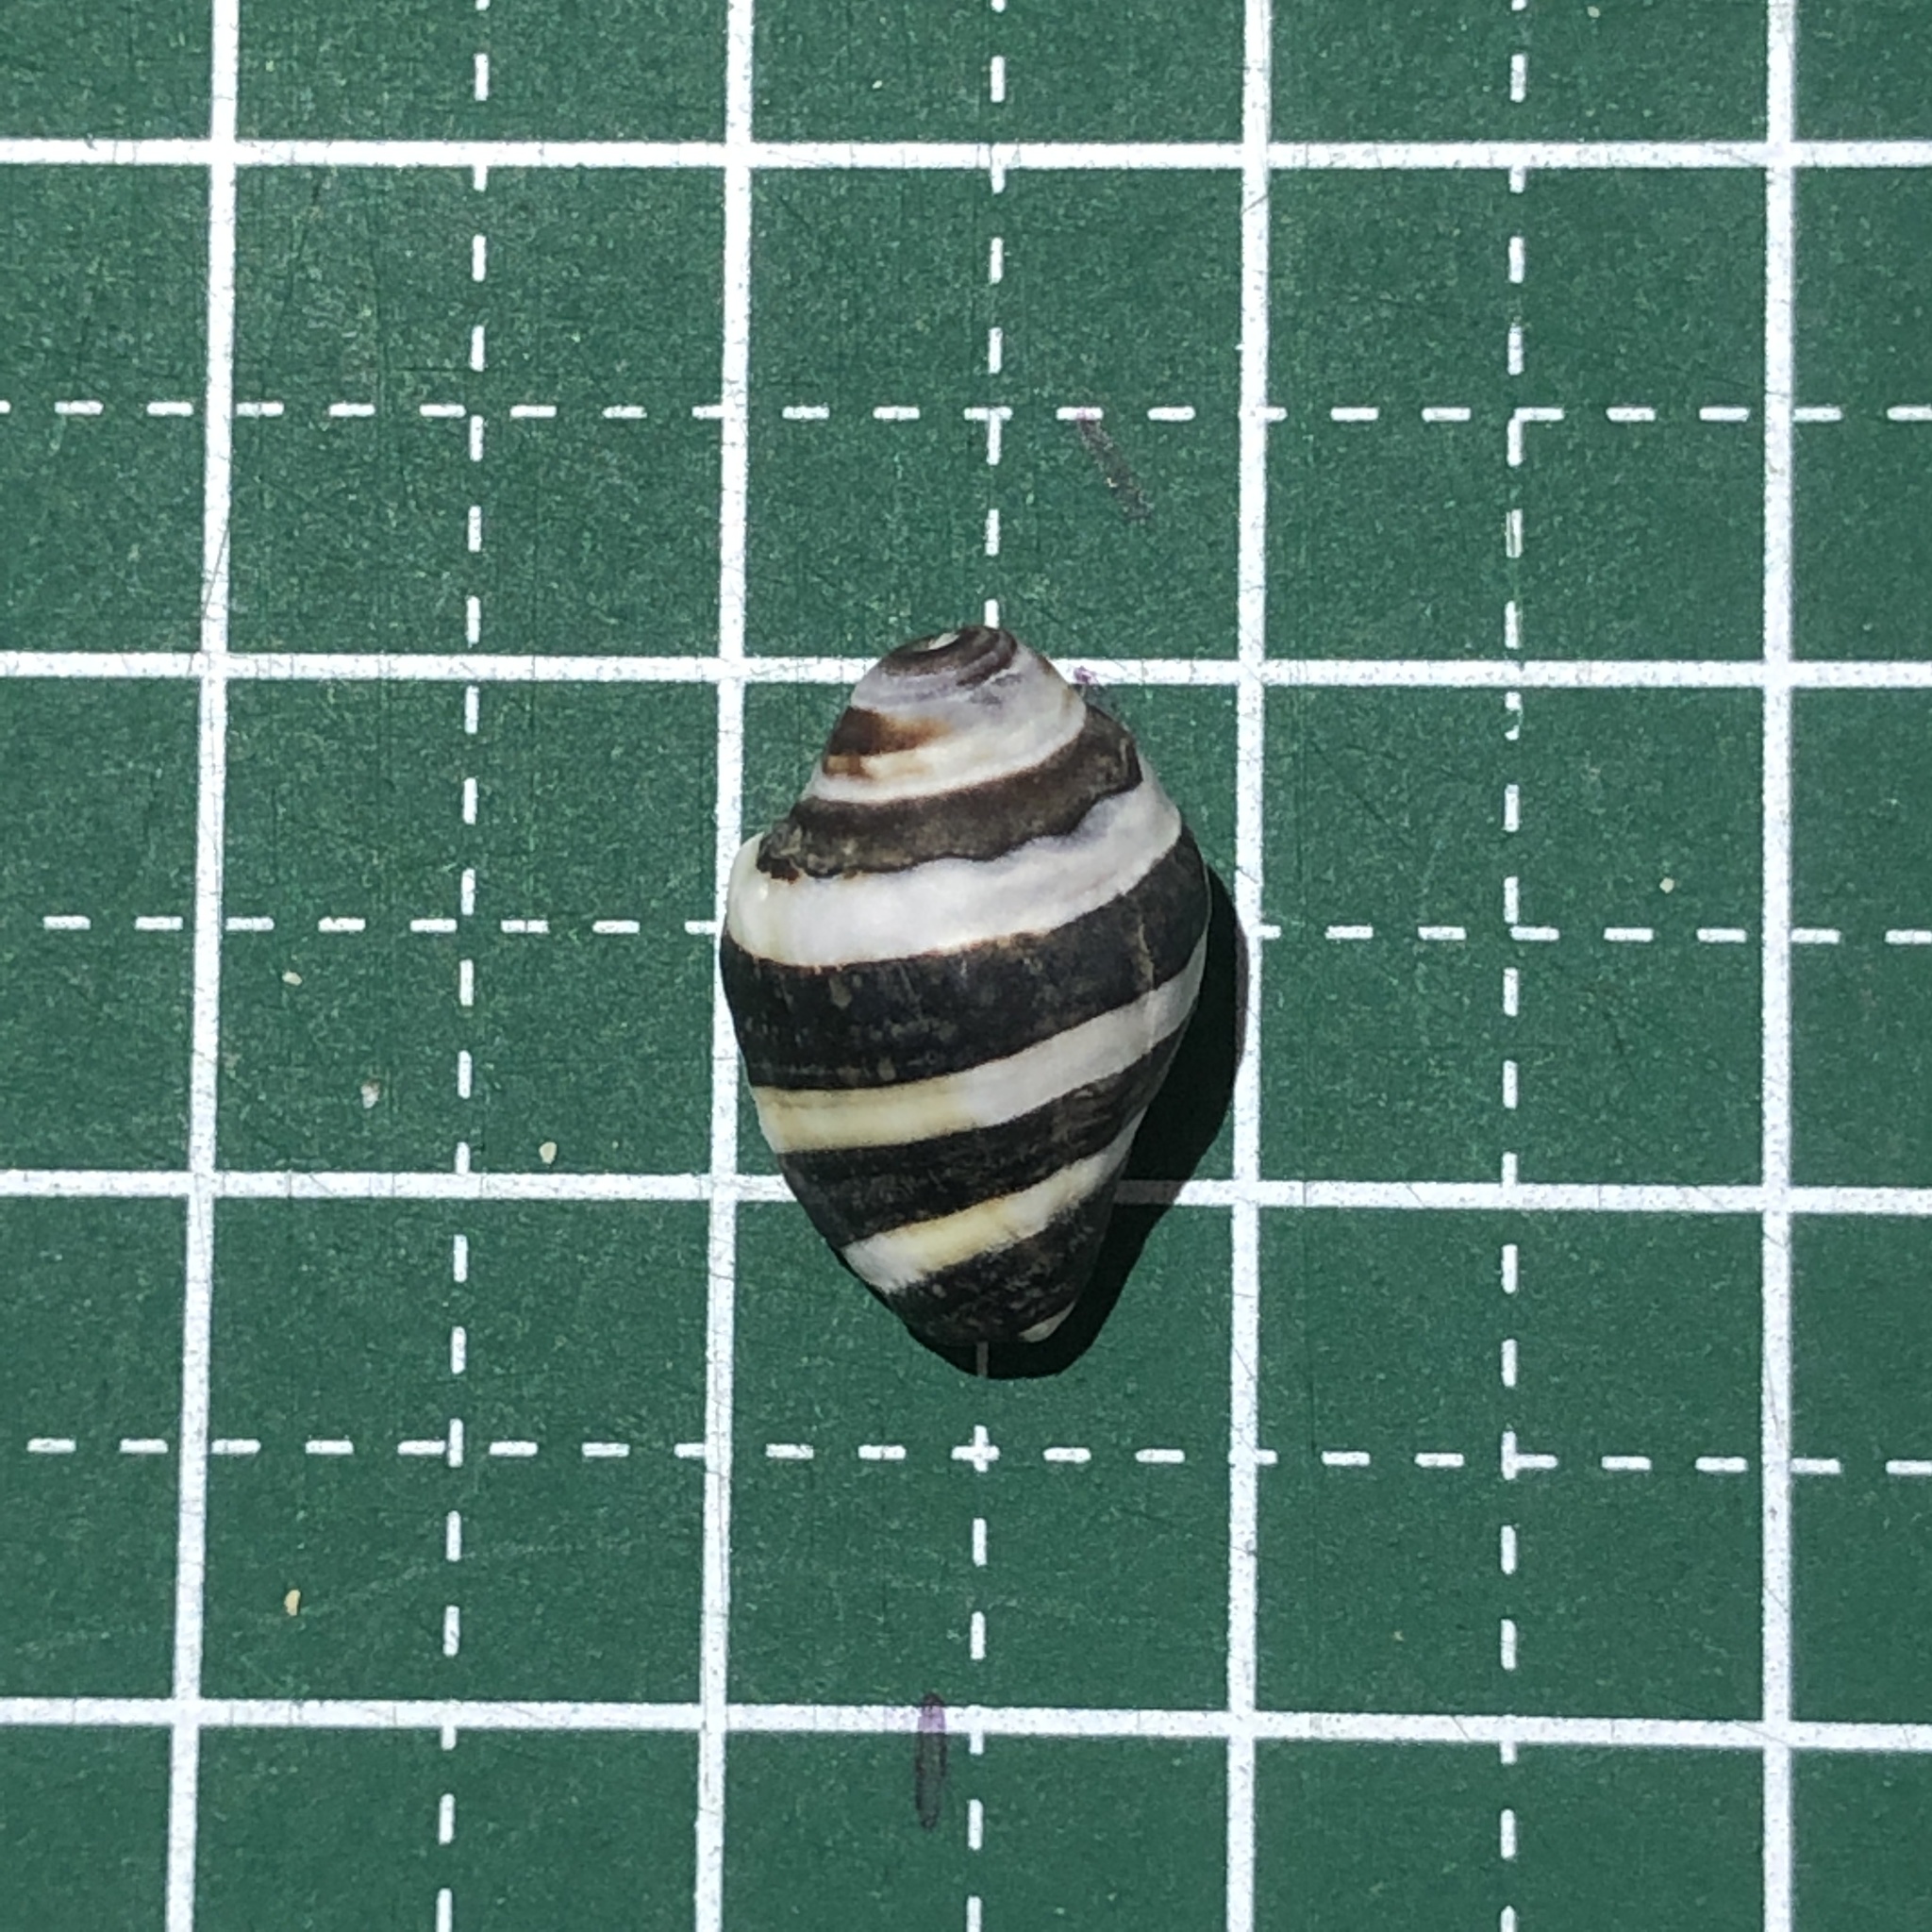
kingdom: Animalia
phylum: Mollusca
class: Gastropoda
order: Neogastropoda
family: Pisaniidae
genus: Engina
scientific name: Engina mendicaria
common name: Bumble bee snail
